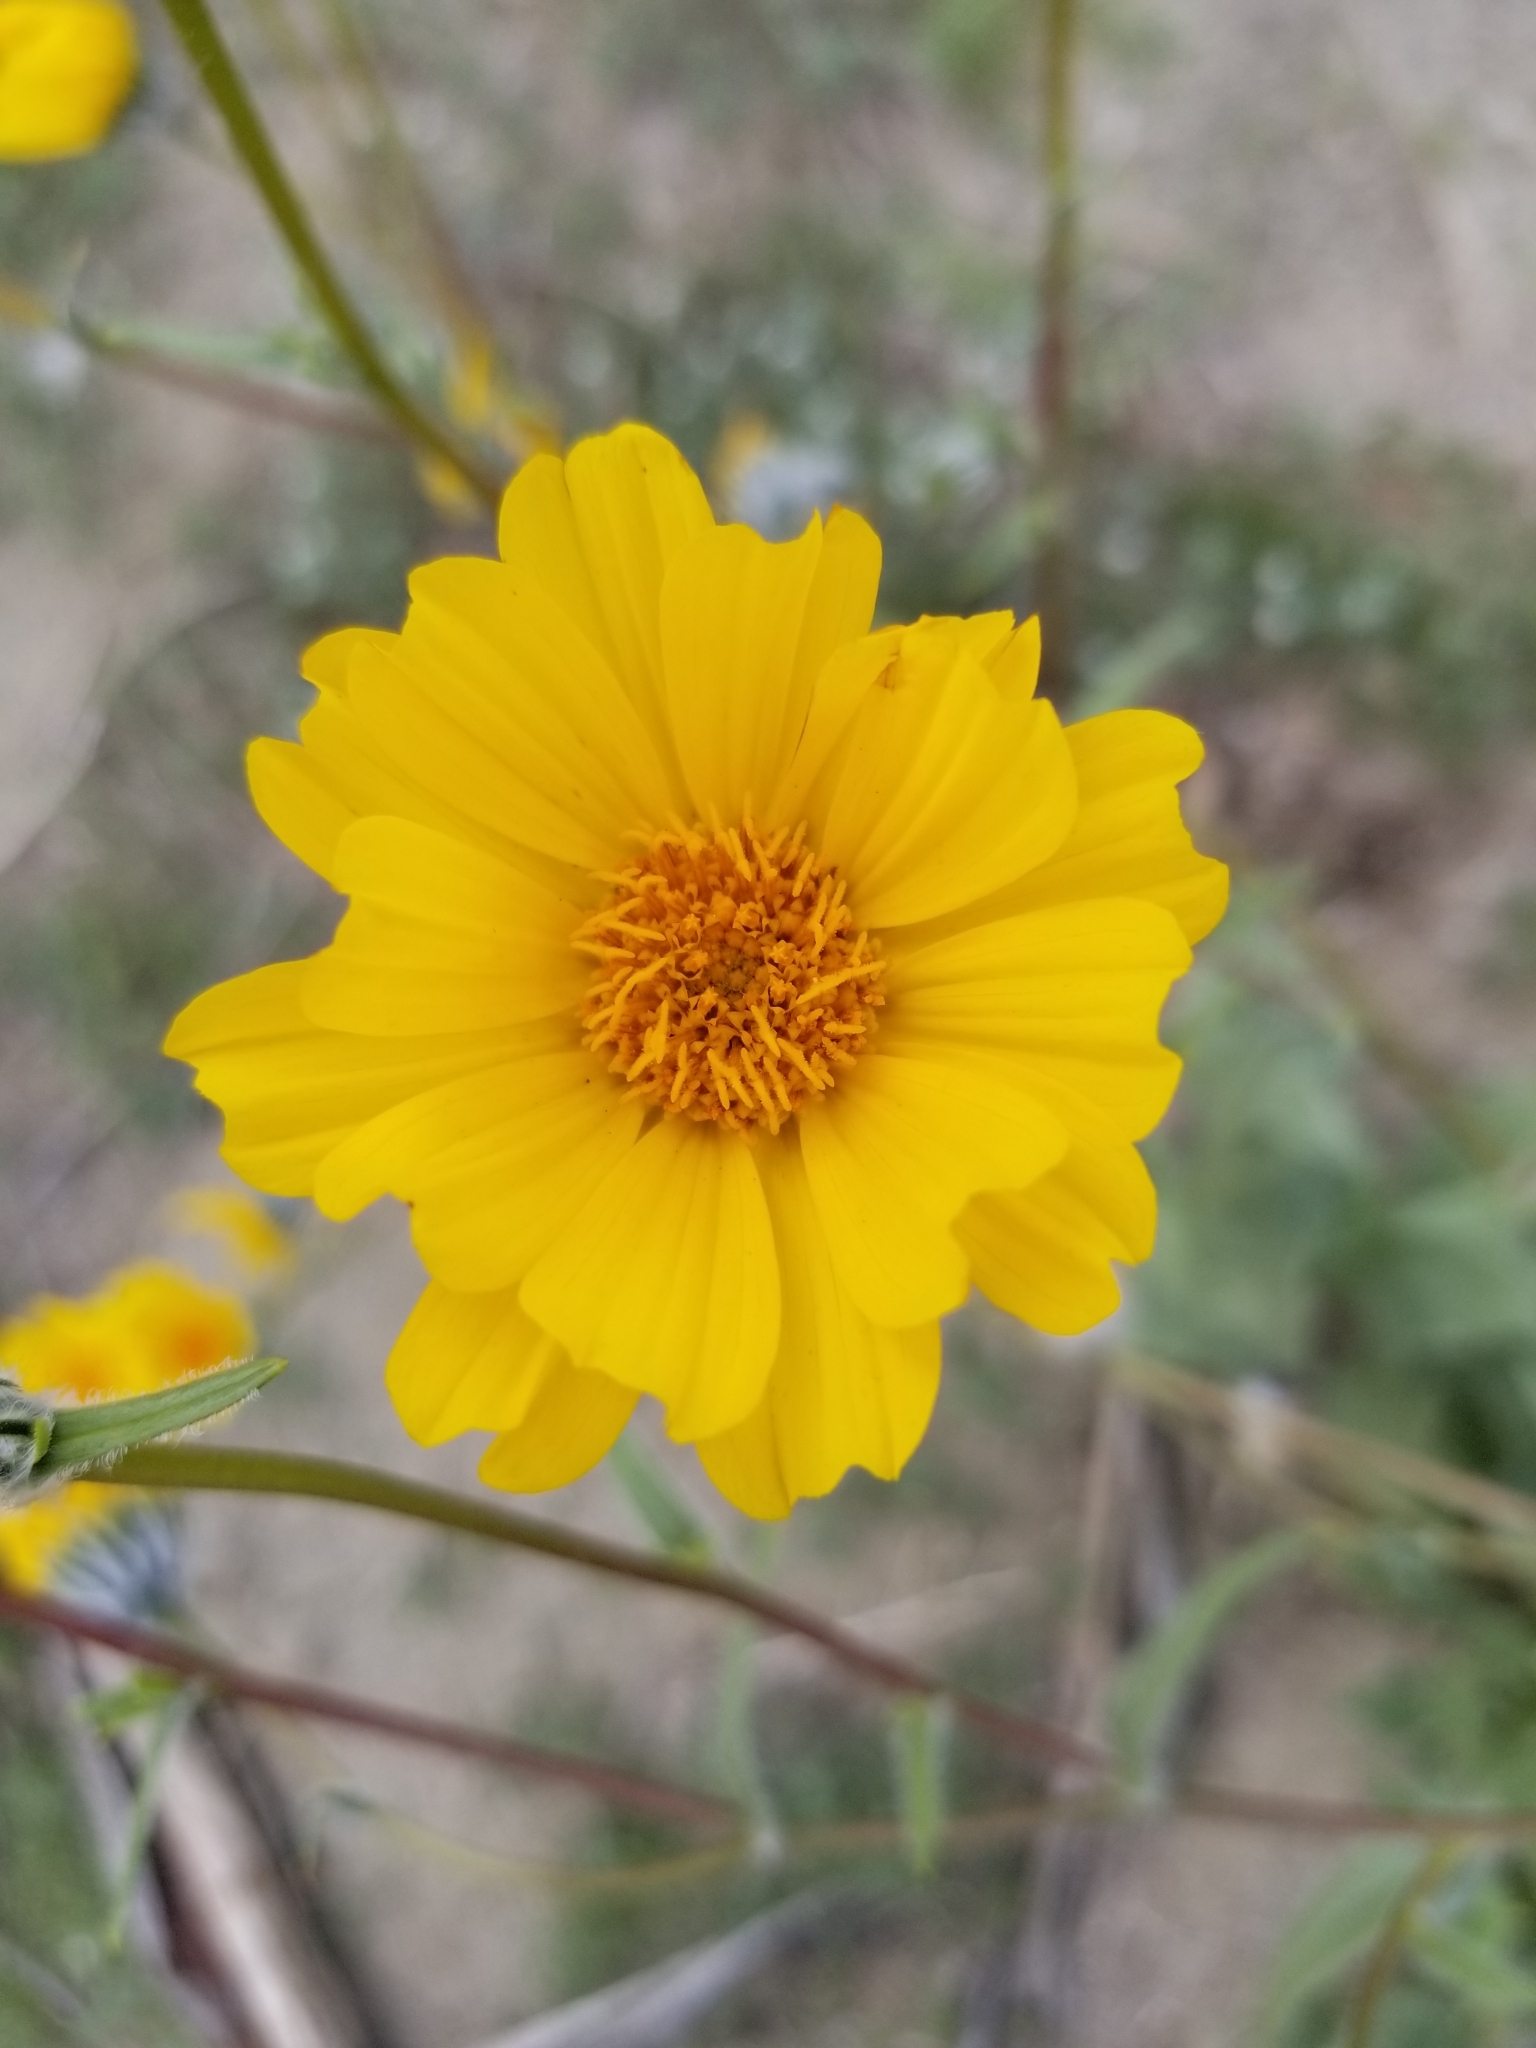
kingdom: Plantae
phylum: Tracheophyta
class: Magnoliopsida
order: Asterales
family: Asteraceae
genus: Geraea
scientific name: Geraea canescens
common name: Desert-gold
